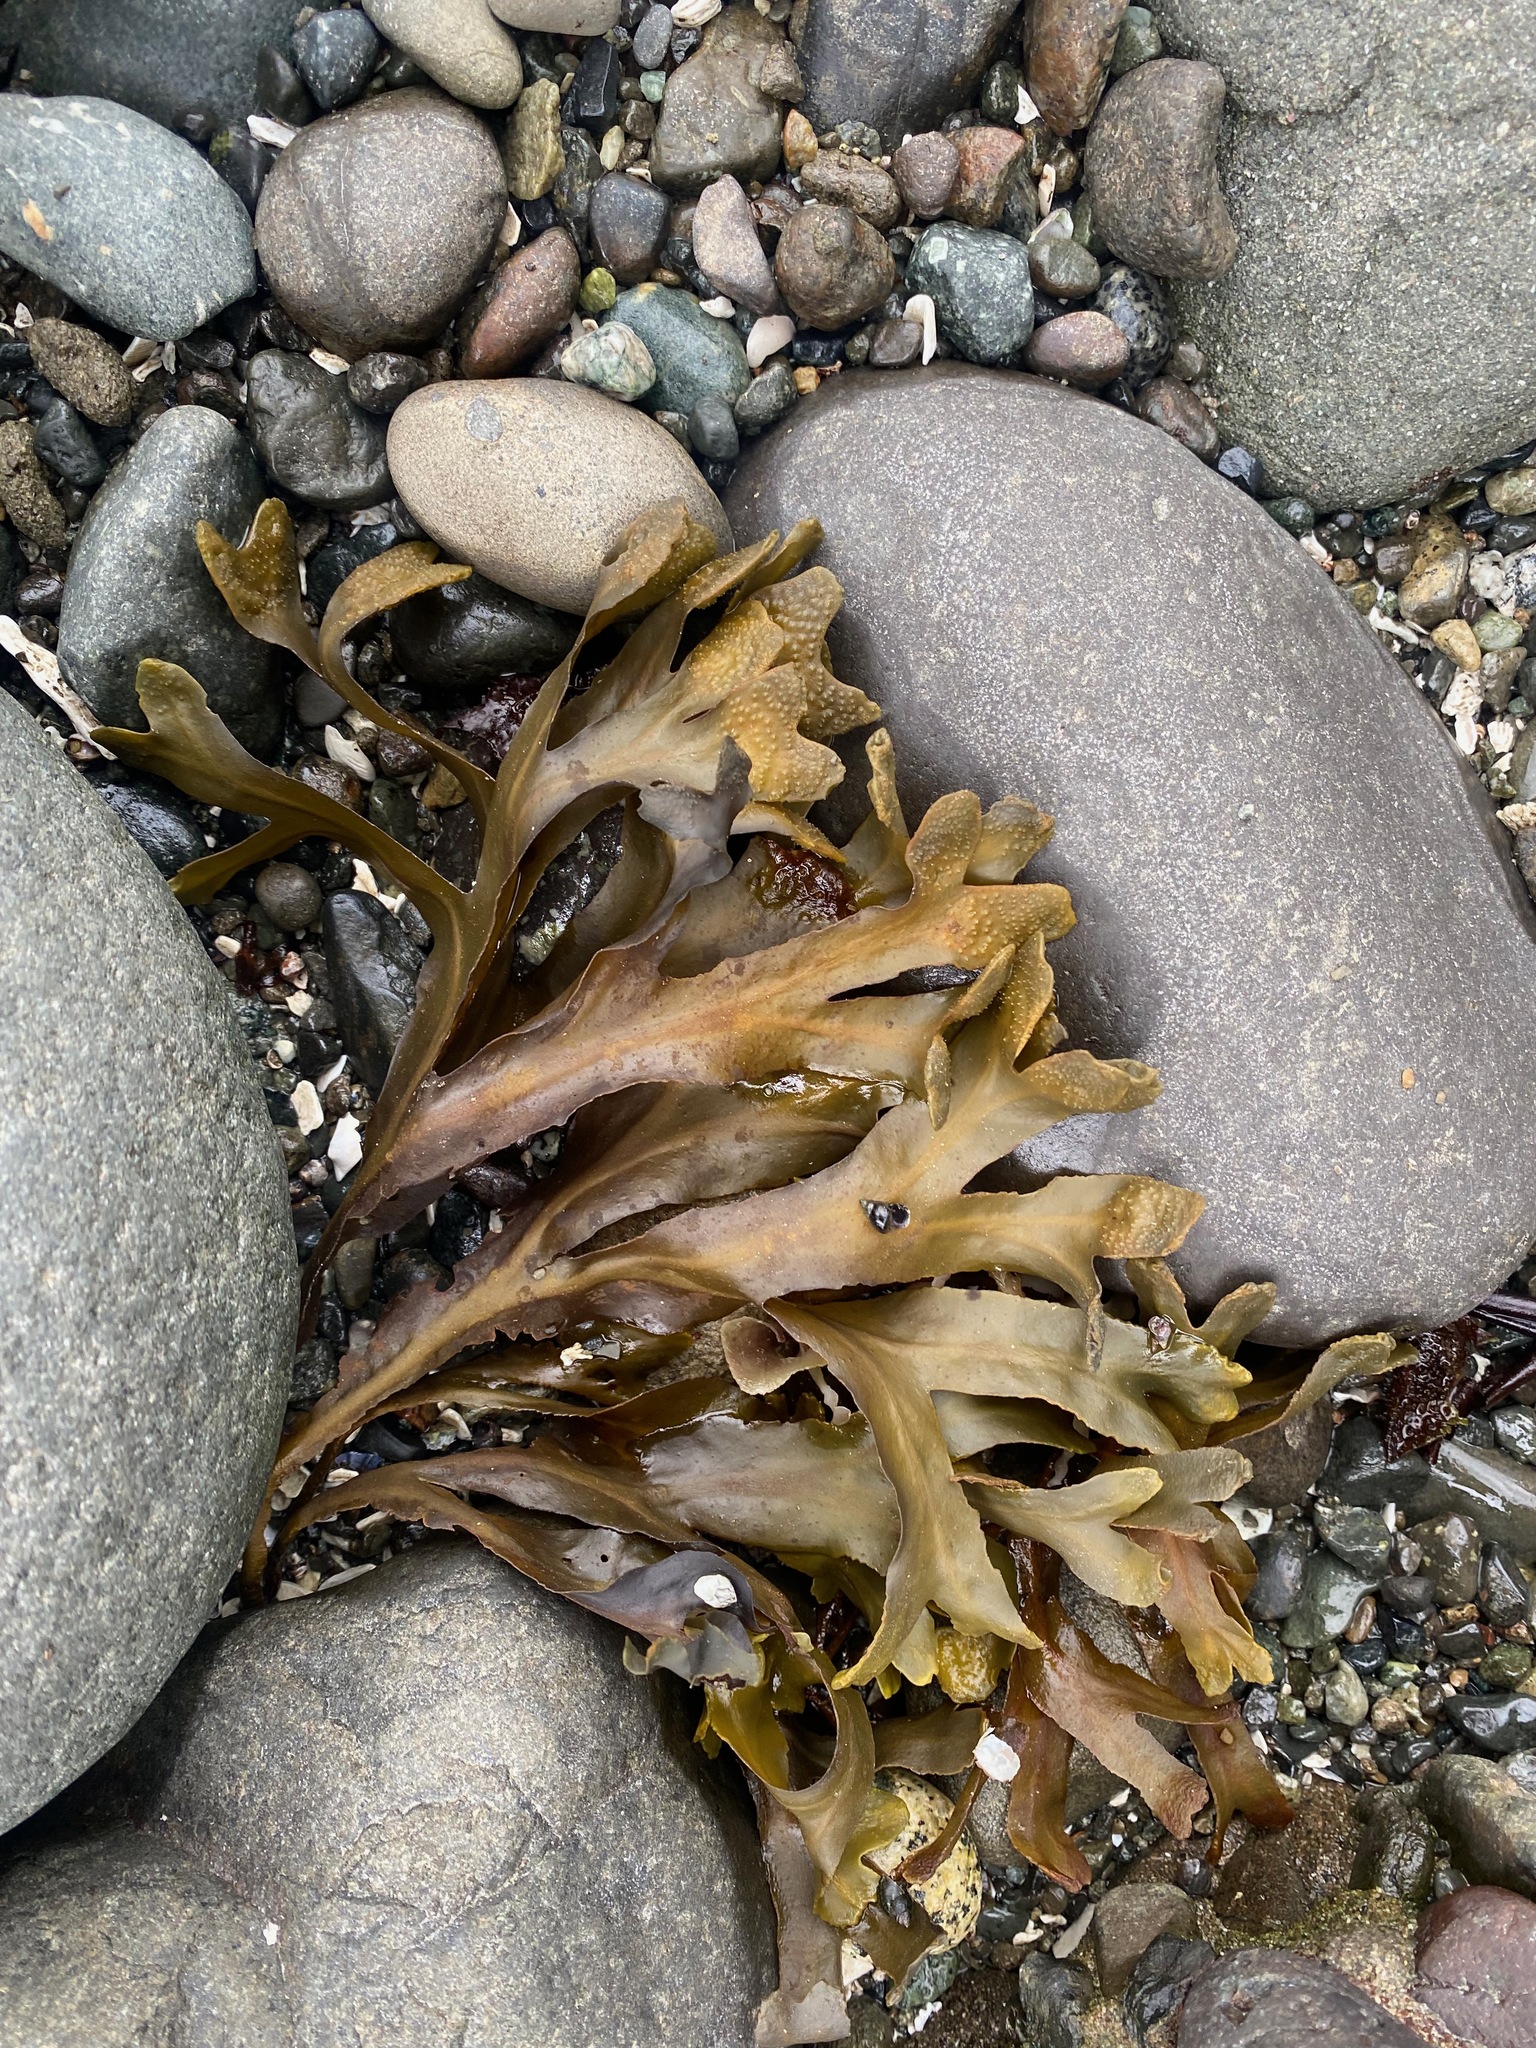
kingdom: Chromista
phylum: Ochrophyta
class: Phaeophyceae
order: Fucales
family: Fucaceae
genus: Fucus
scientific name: Fucus distichus
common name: Rockweed
